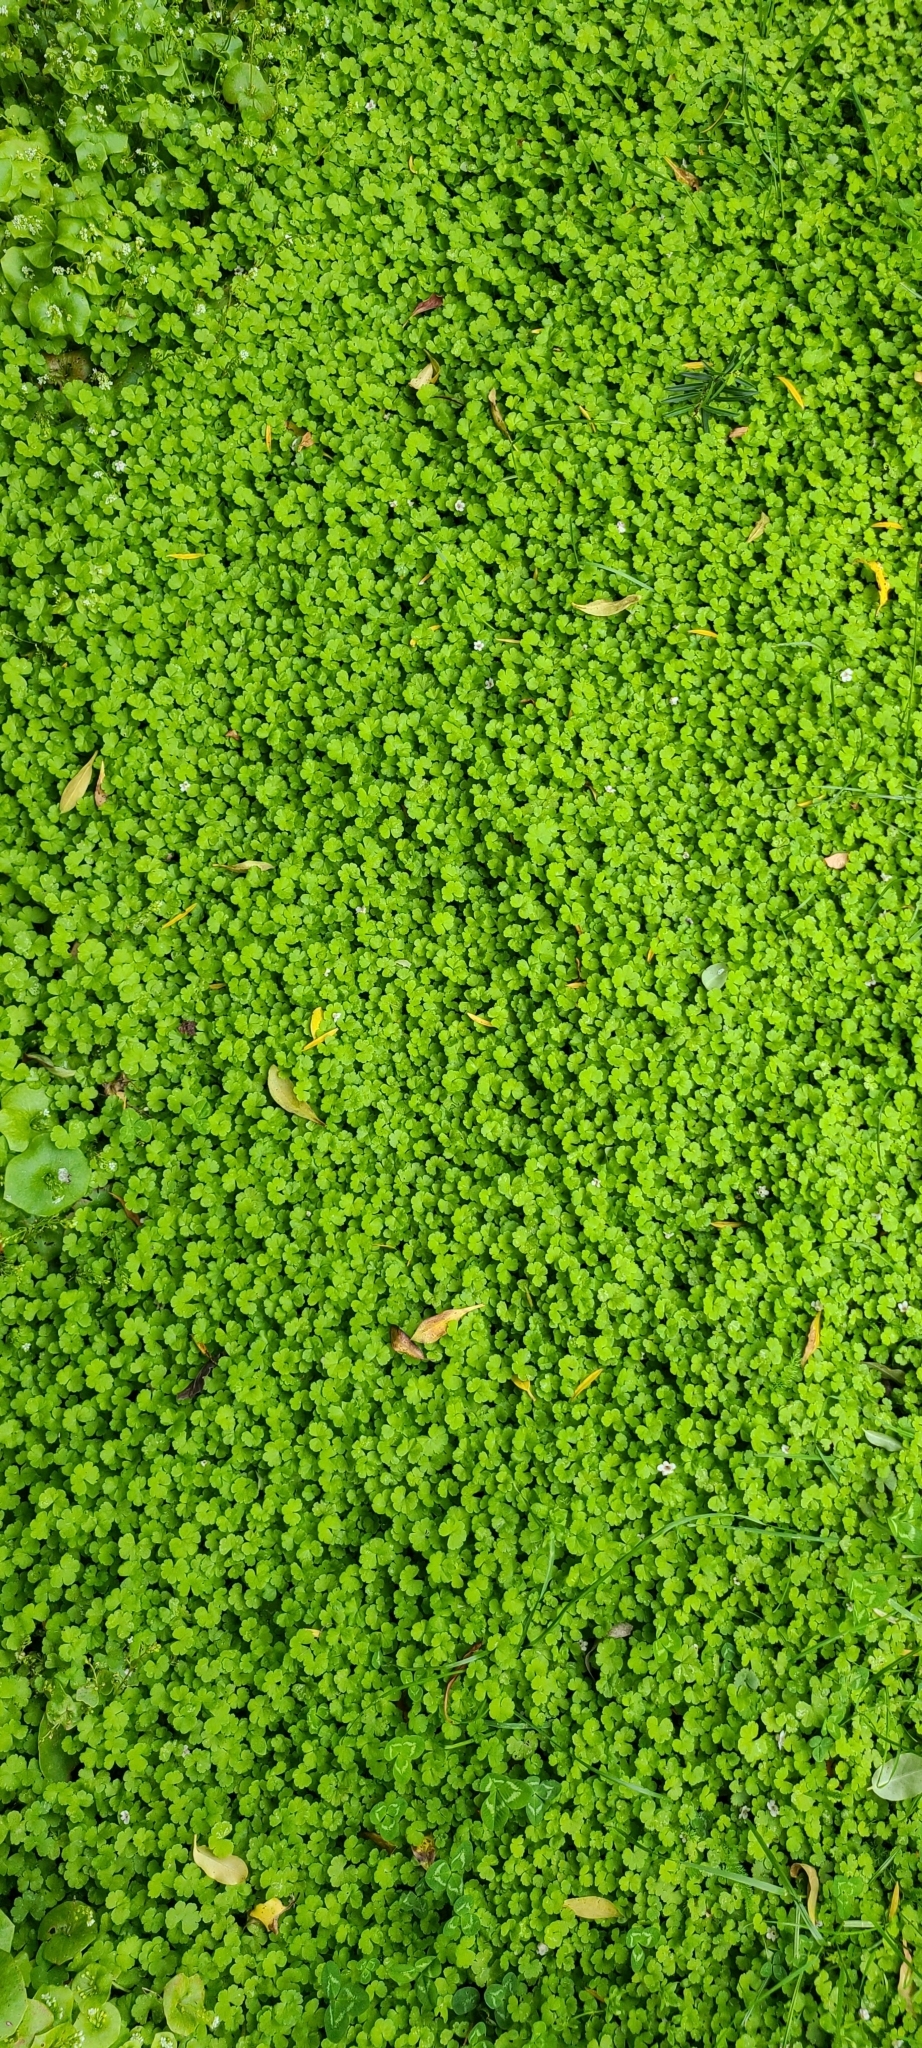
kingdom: Plantae
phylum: Tracheophyta
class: Magnoliopsida
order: Apiales
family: Araliaceae
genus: Hydrocotyle
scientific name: Hydrocotyle heteromeria
